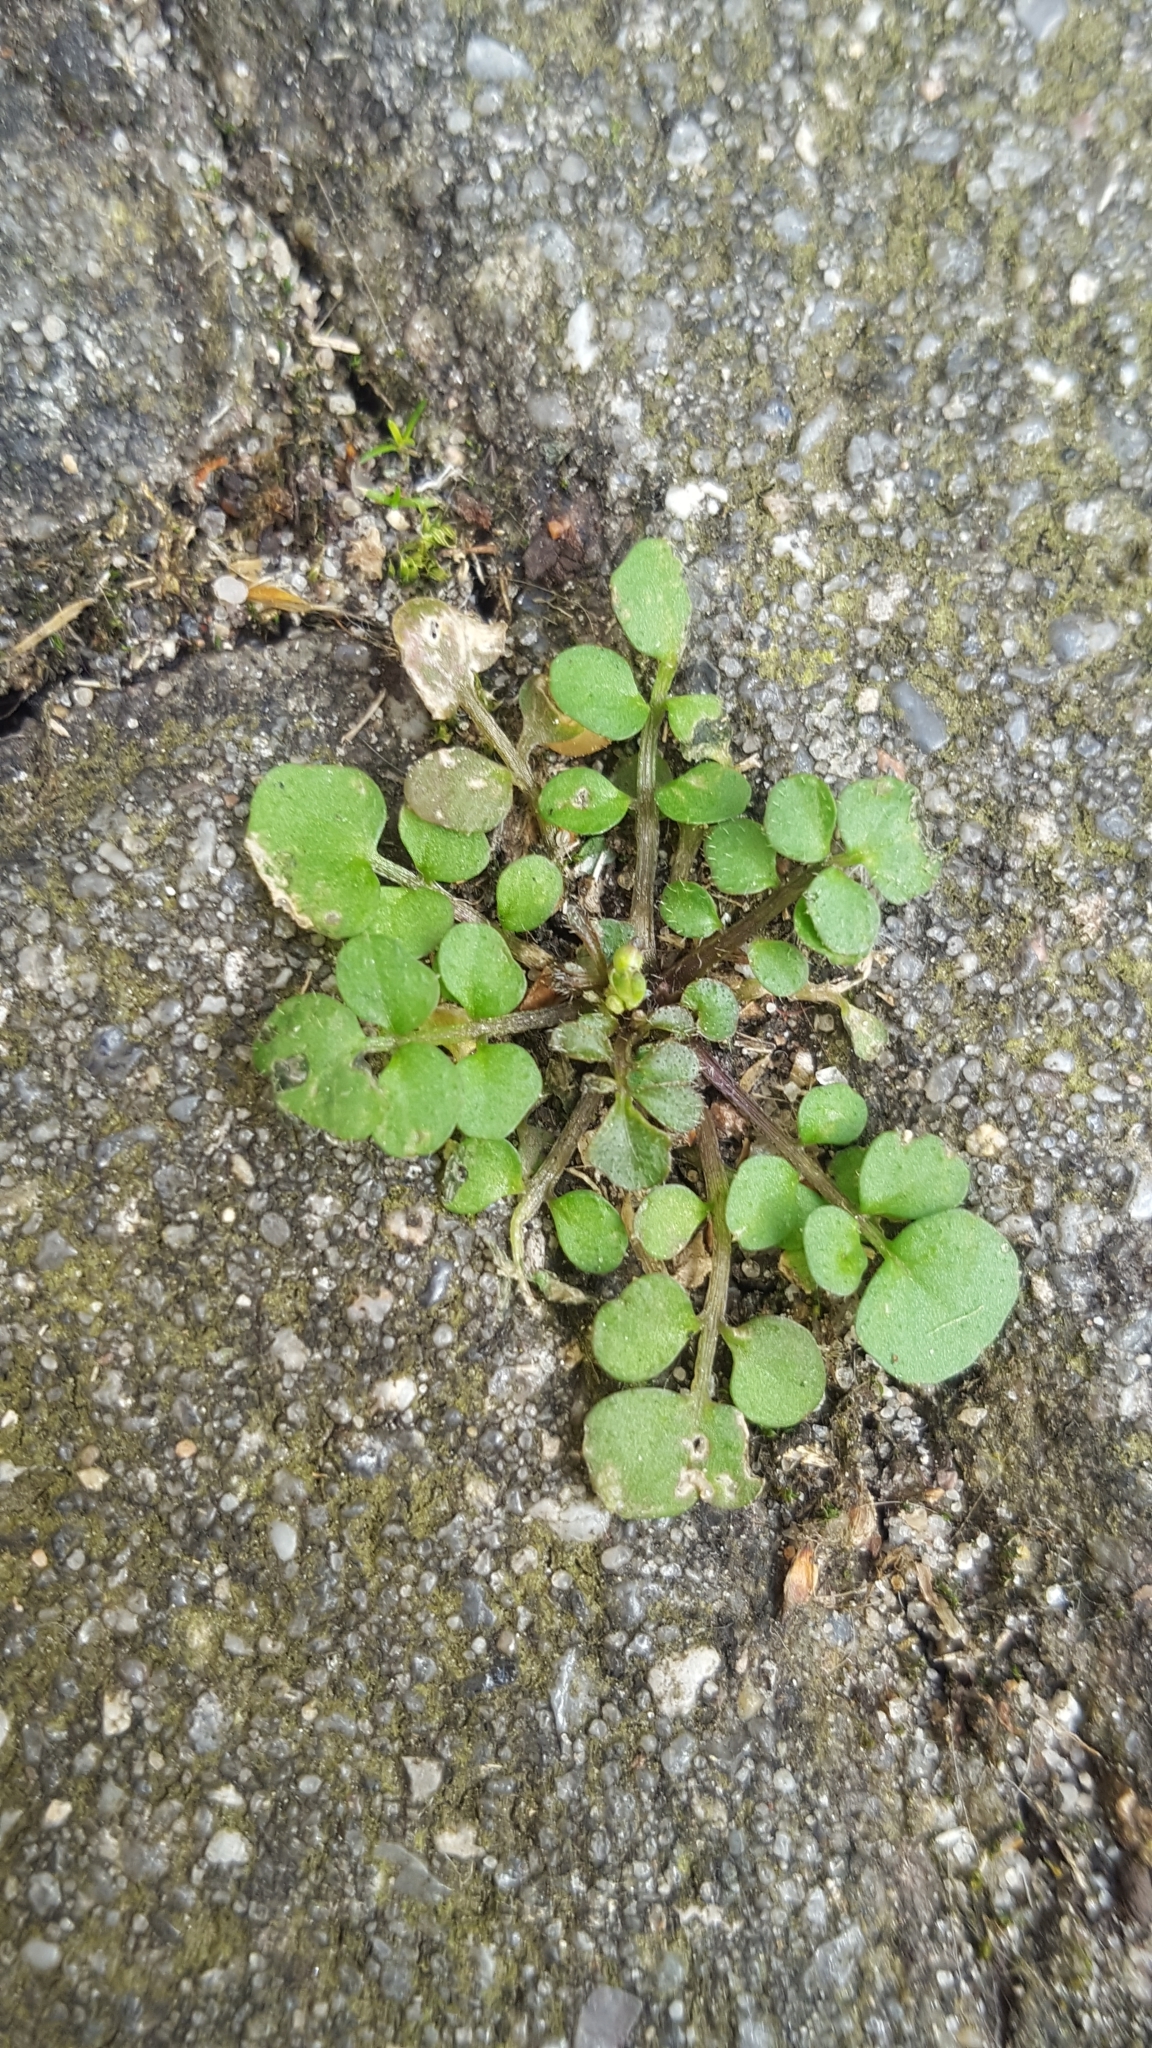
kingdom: Plantae
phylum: Tracheophyta
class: Magnoliopsida
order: Brassicales
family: Brassicaceae
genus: Cardamine
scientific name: Cardamine hirsuta
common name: Hairy bittercress
